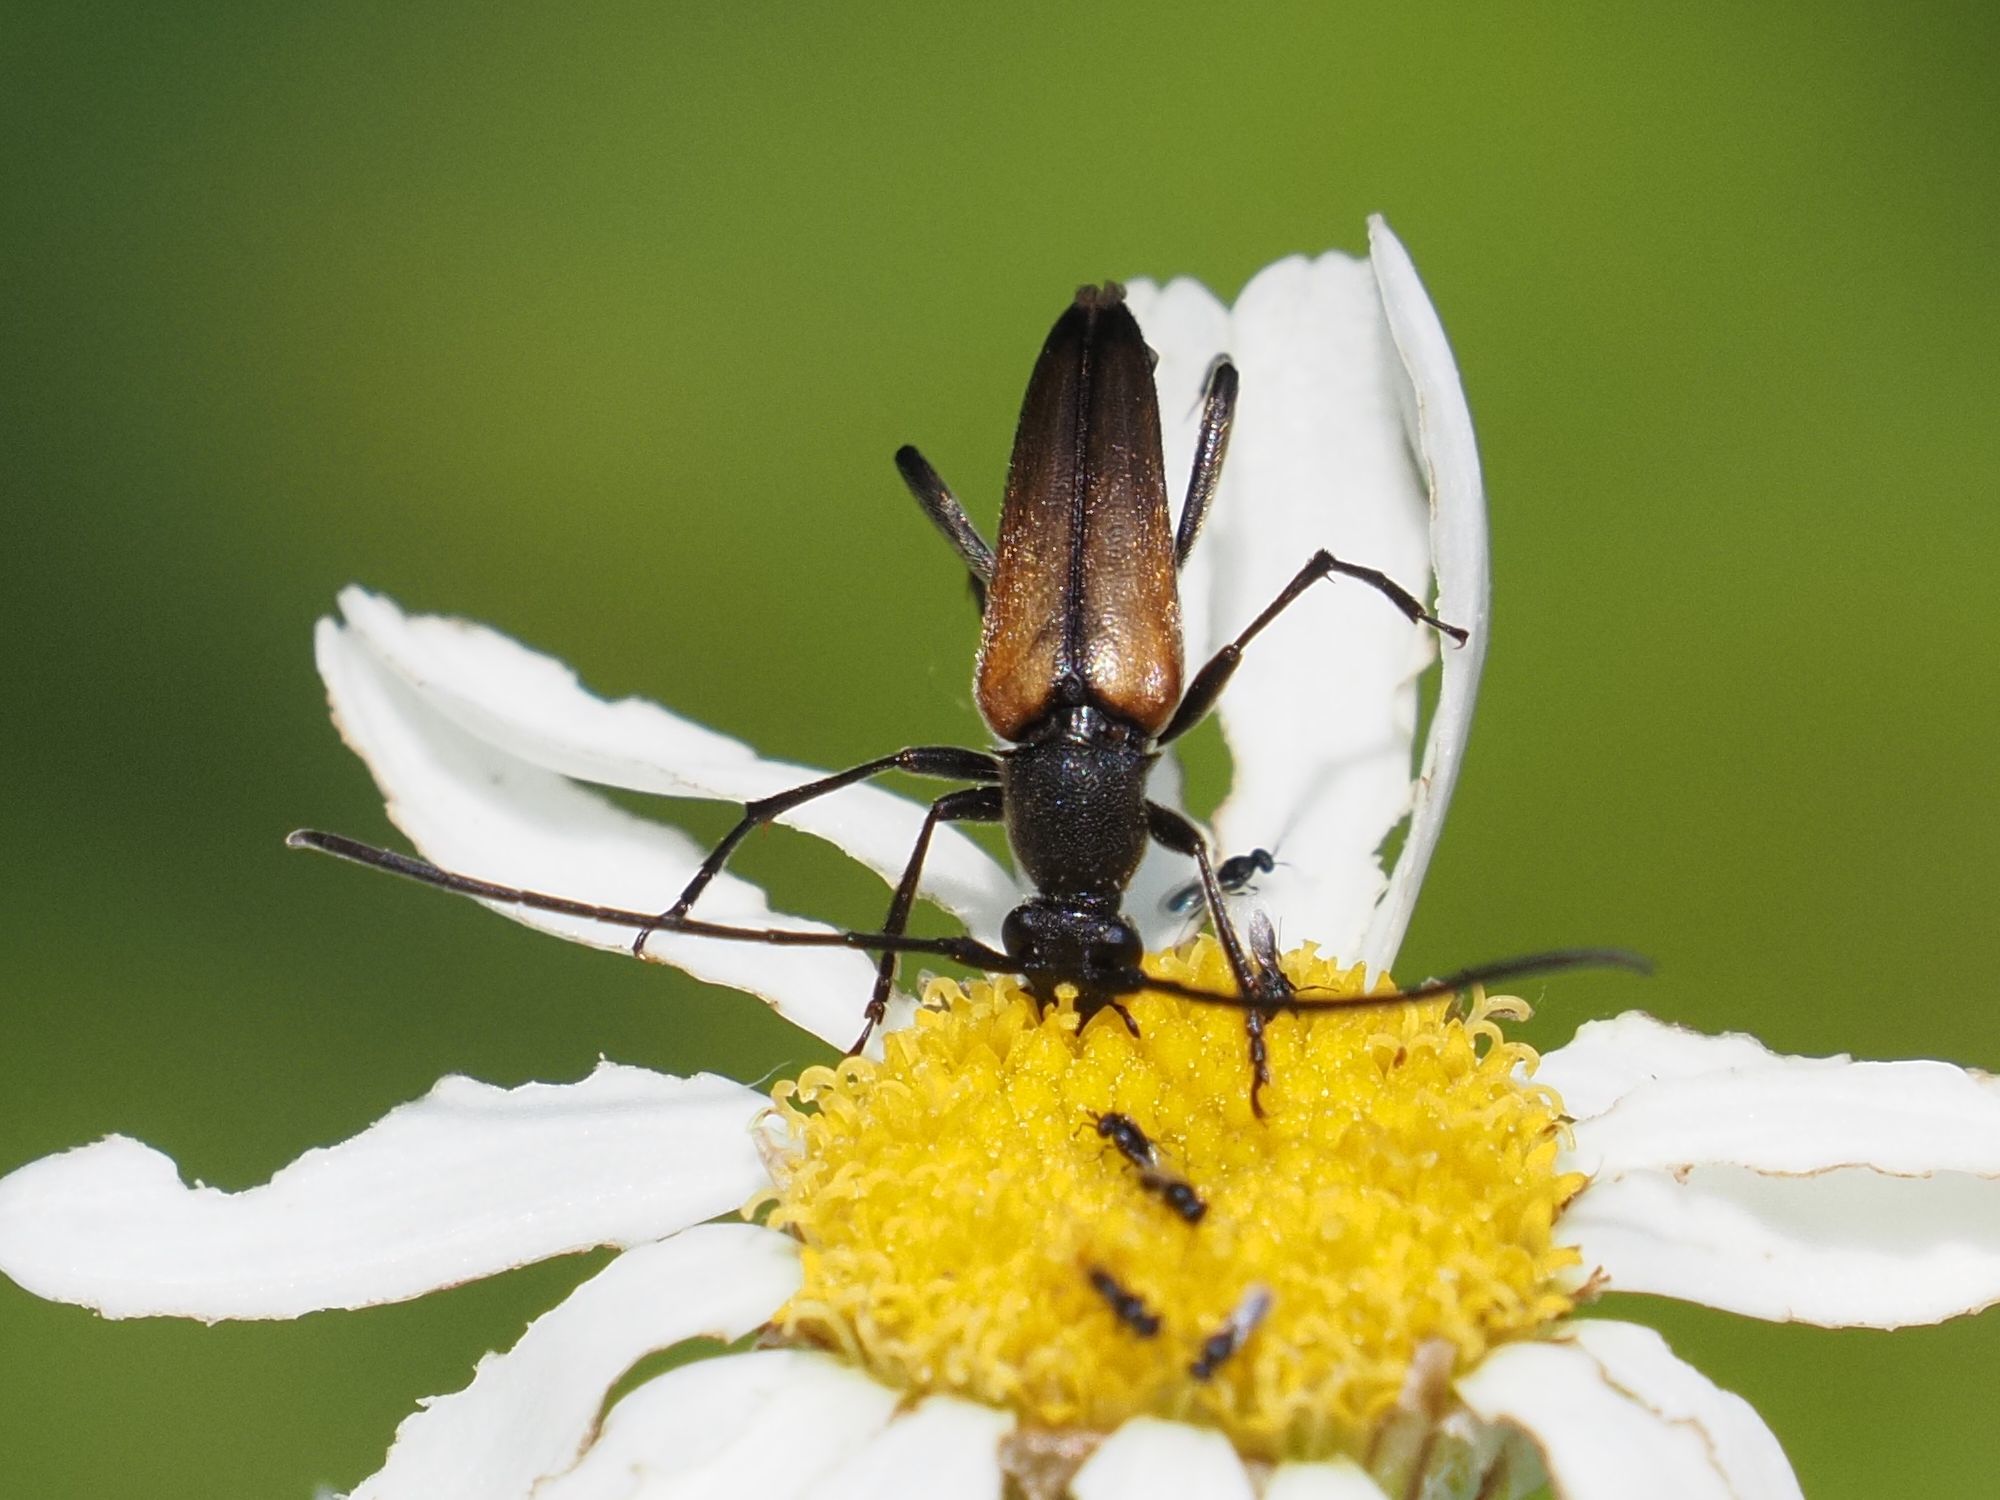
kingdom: Animalia
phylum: Arthropoda
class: Insecta
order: Coleoptera
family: Cerambycidae
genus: Stenurella
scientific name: Stenurella melanura
